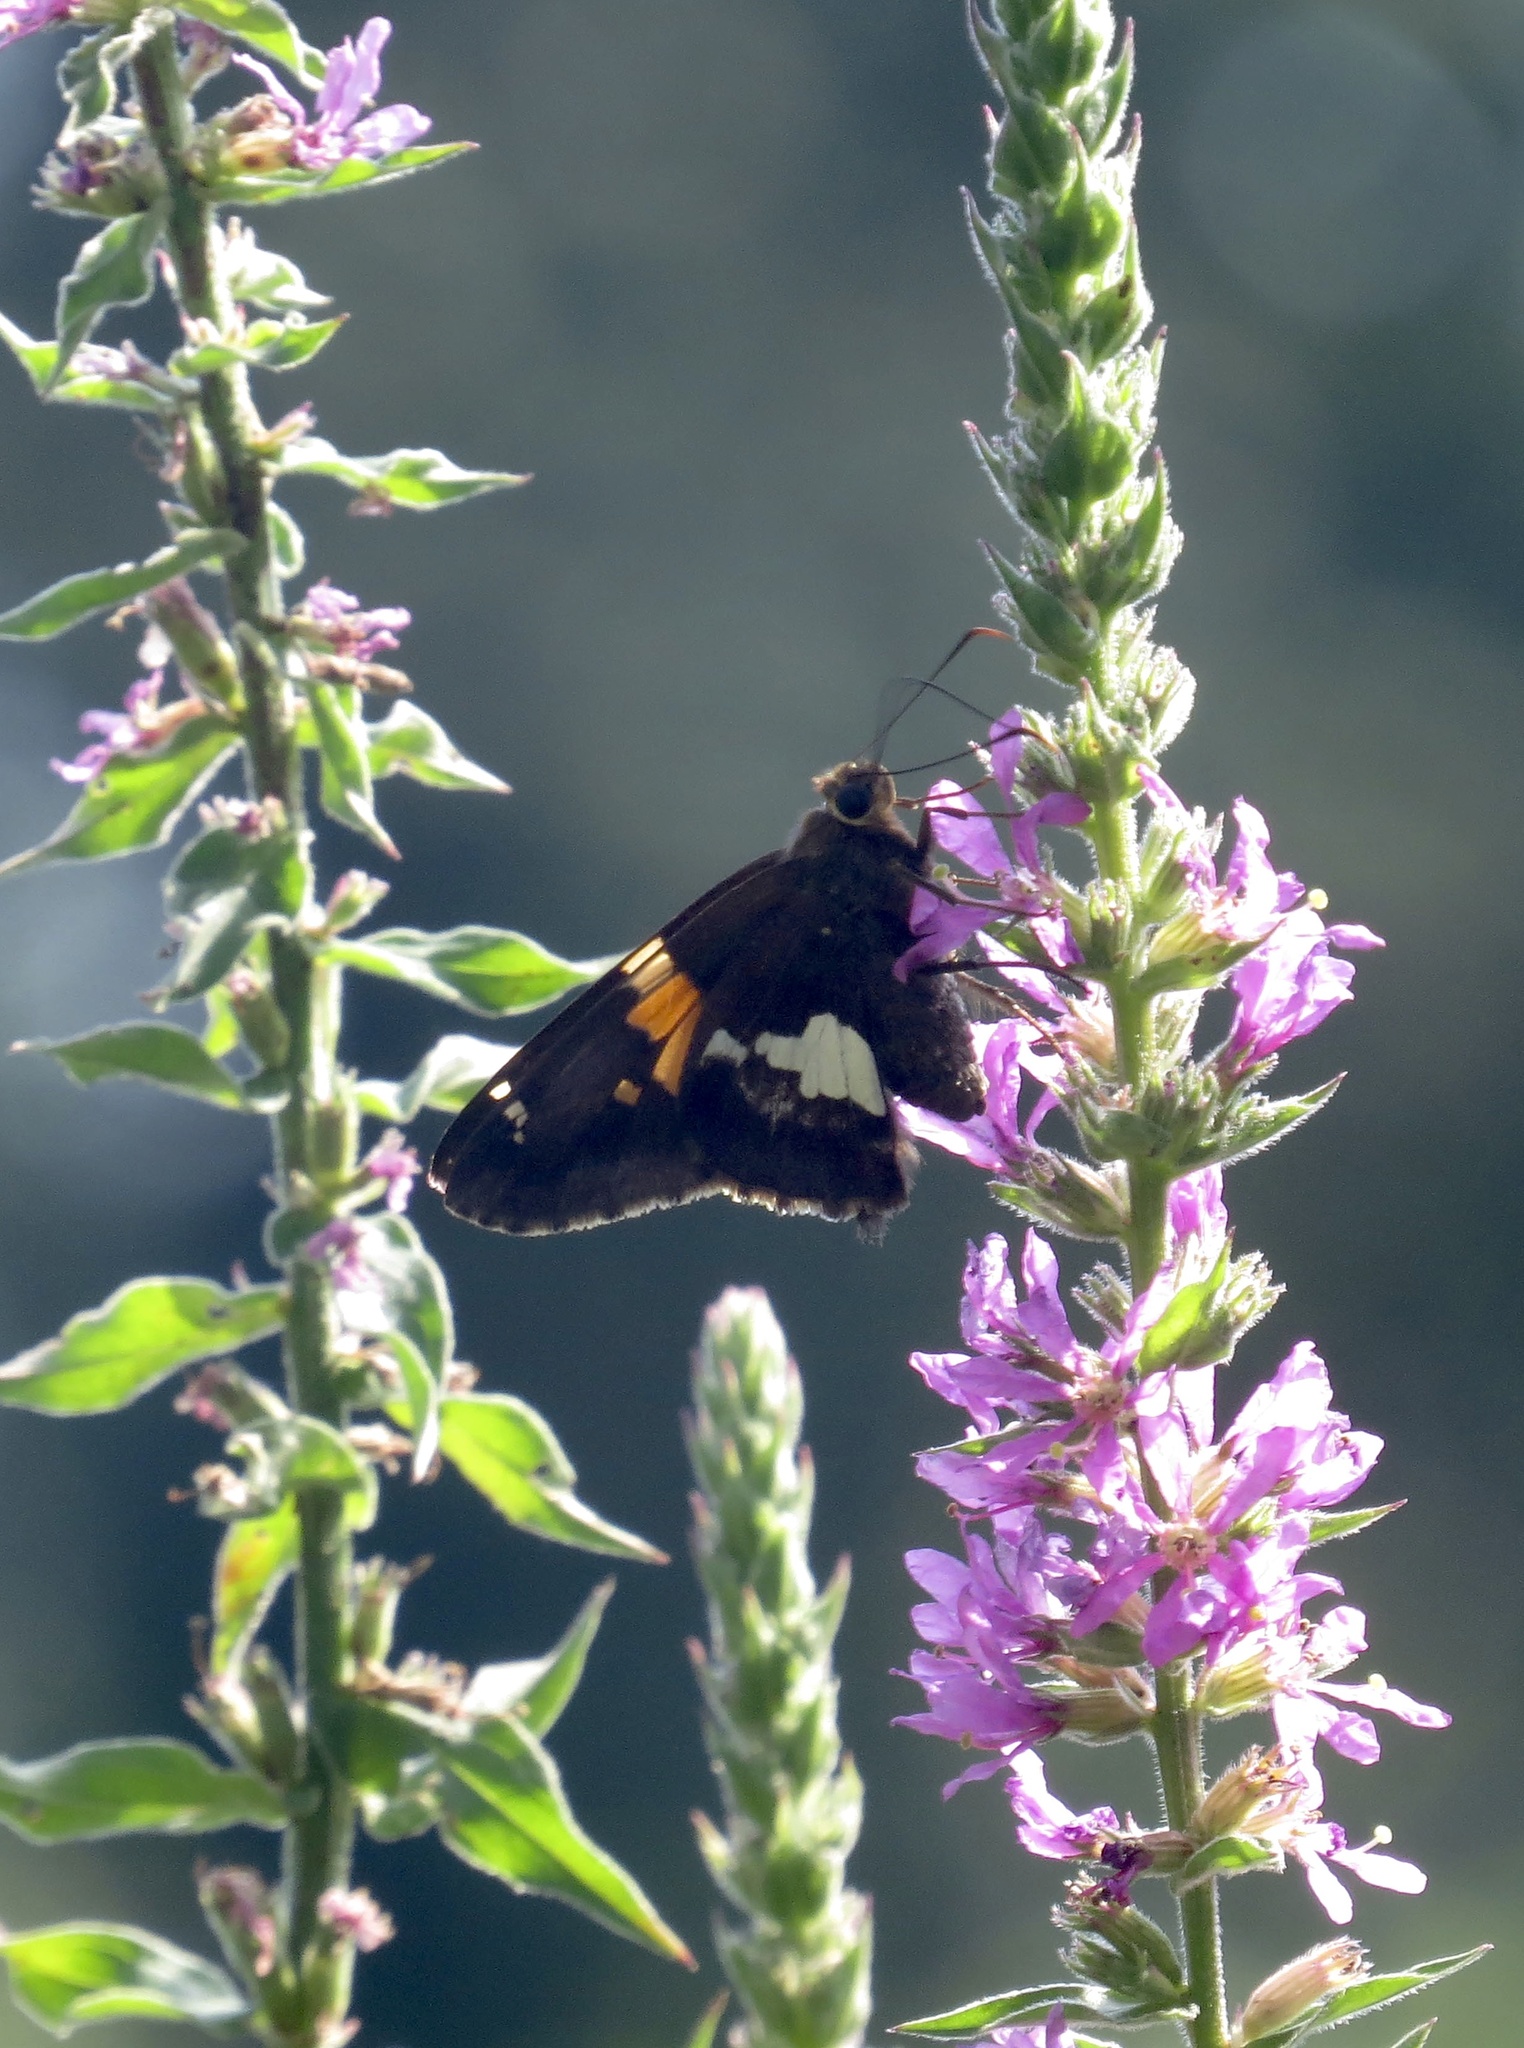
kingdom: Animalia
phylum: Arthropoda
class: Insecta
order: Lepidoptera
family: Hesperiidae
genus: Epargyreus
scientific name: Epargyreus clarus
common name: Silver-spotted skipper
